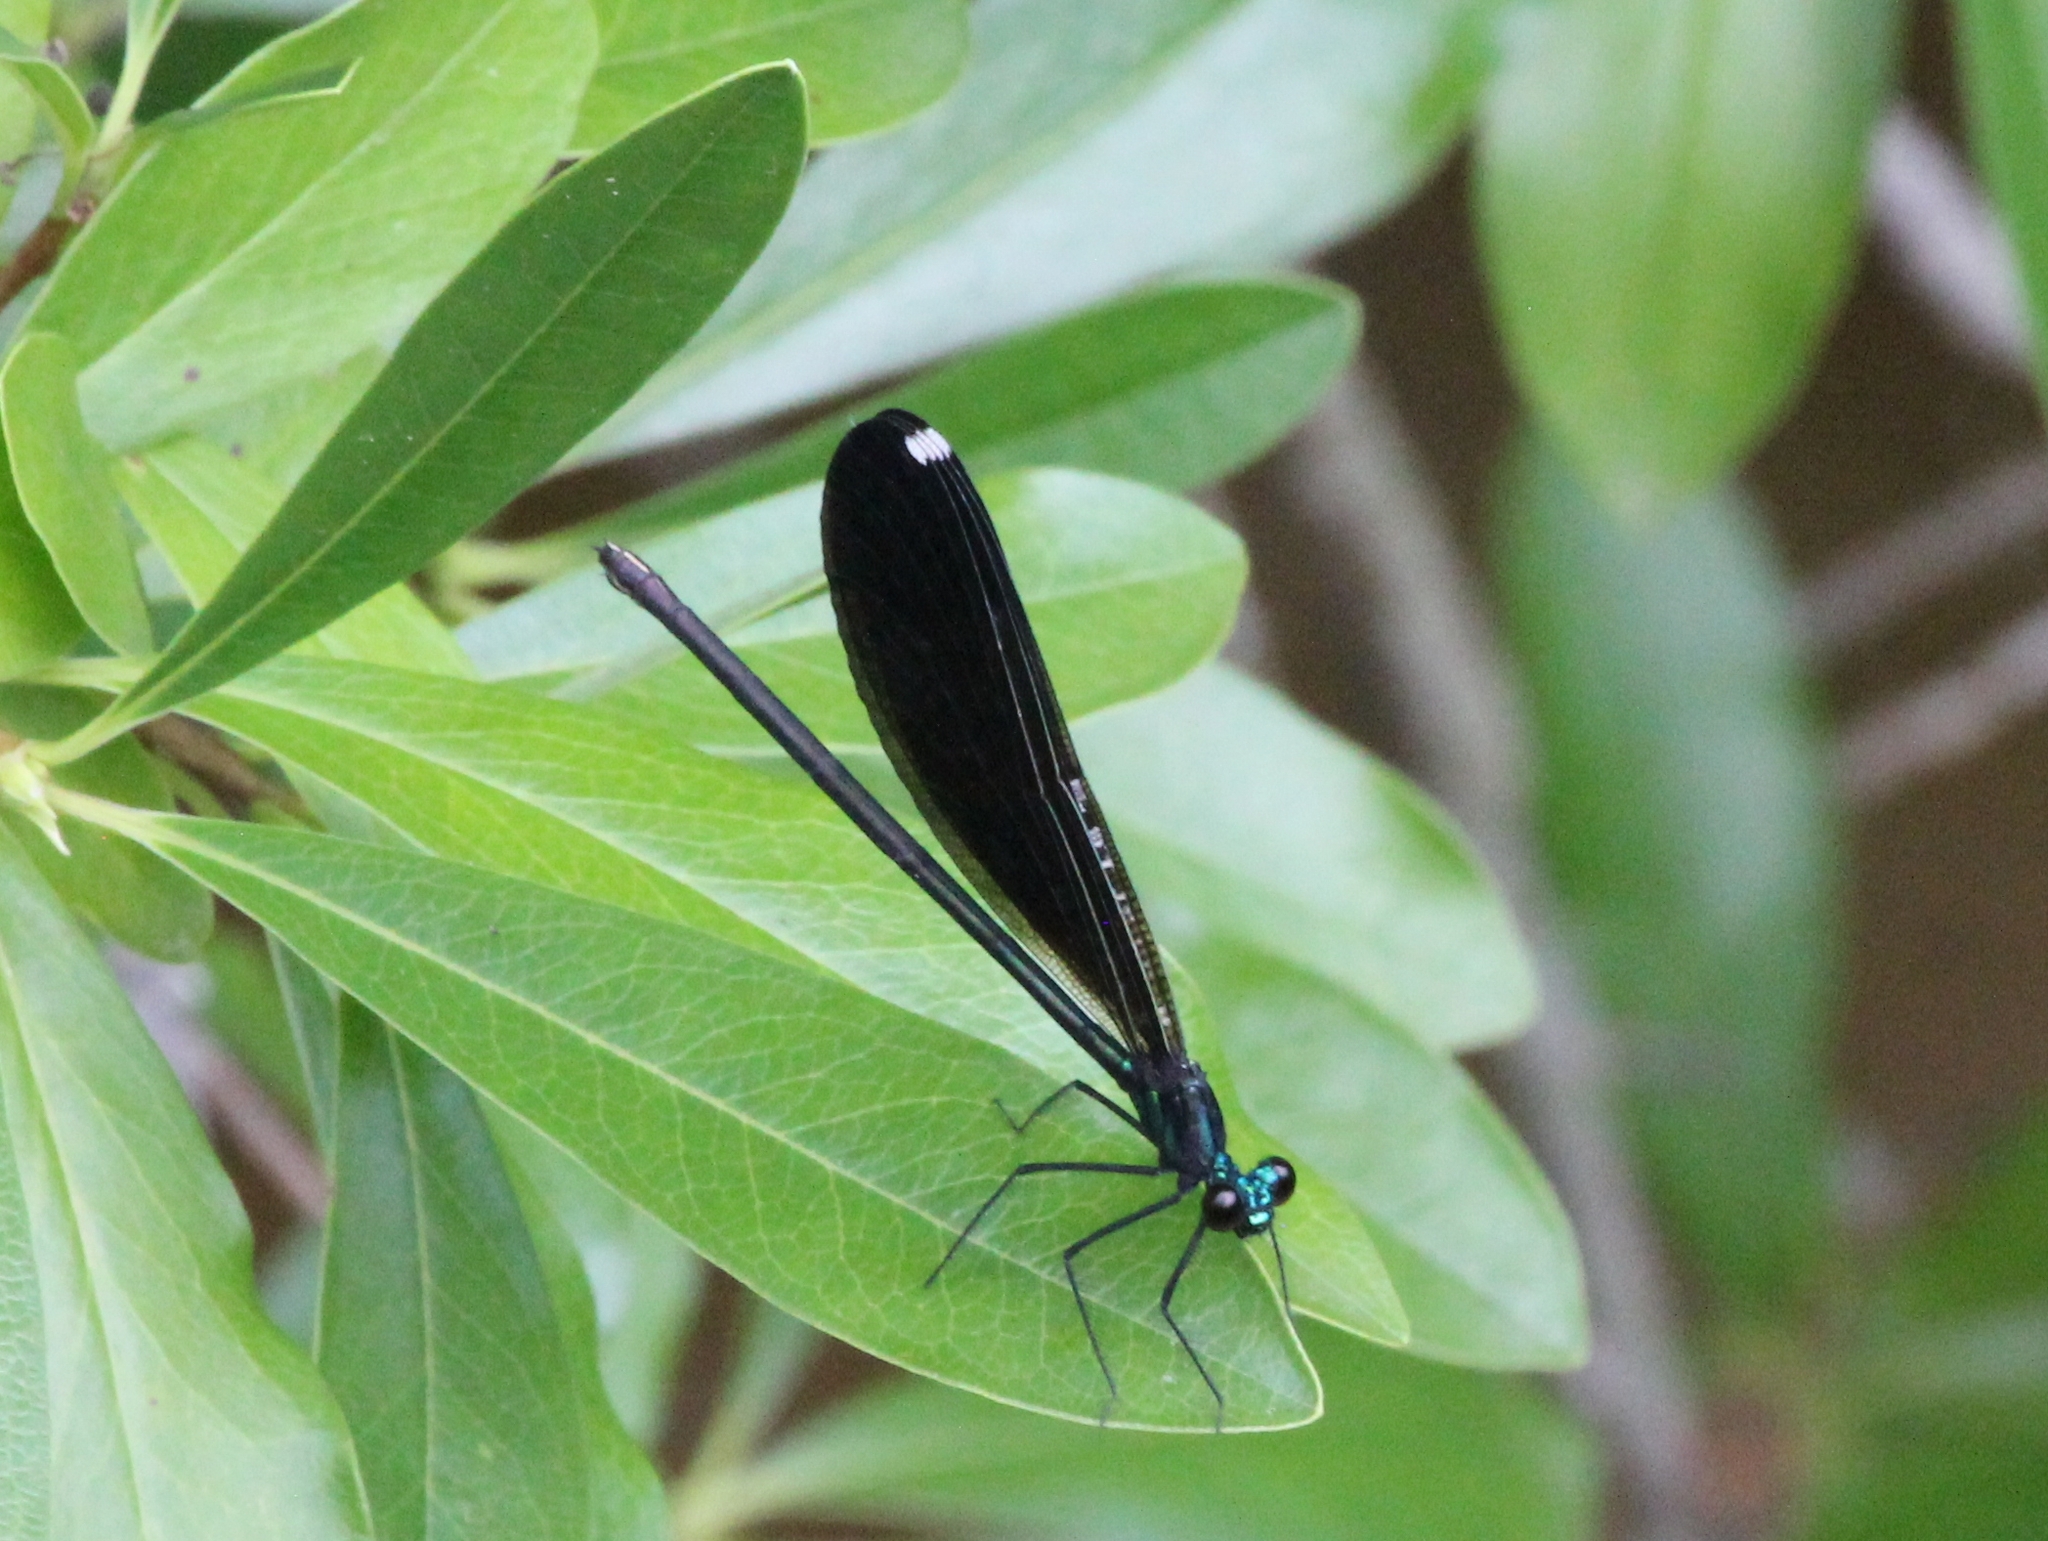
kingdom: Animalia
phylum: Arthropoda
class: Insecta
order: Odonata
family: Calopterygidae
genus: Calopteryx
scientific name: Calopteryx maculata
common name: Ebony jewelwing
